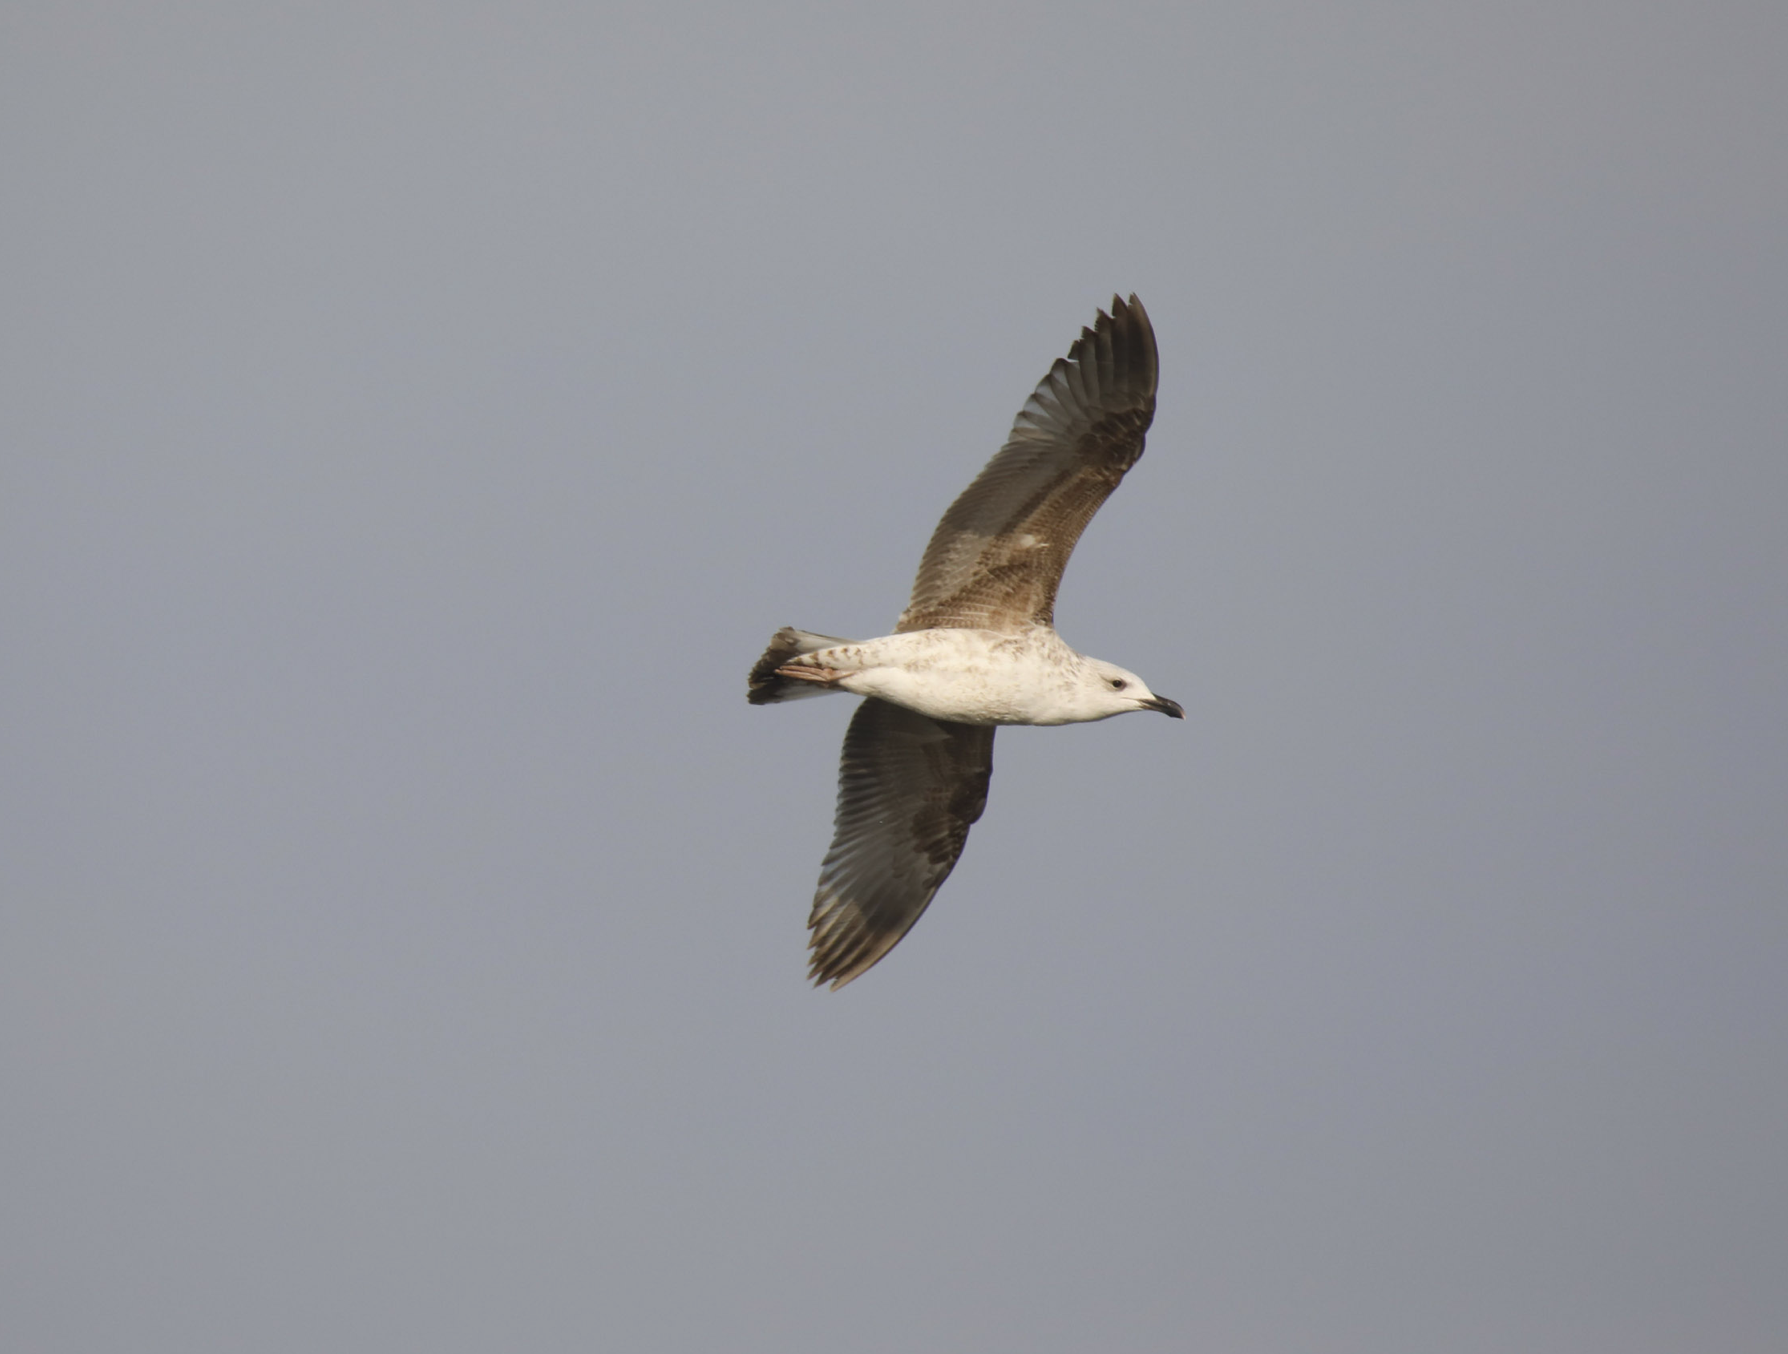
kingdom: Animalia
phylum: Chordata
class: Aves
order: Charadriiformes
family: Laridae
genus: Larus
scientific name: Larus michahellis
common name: Yellow-legged gull
